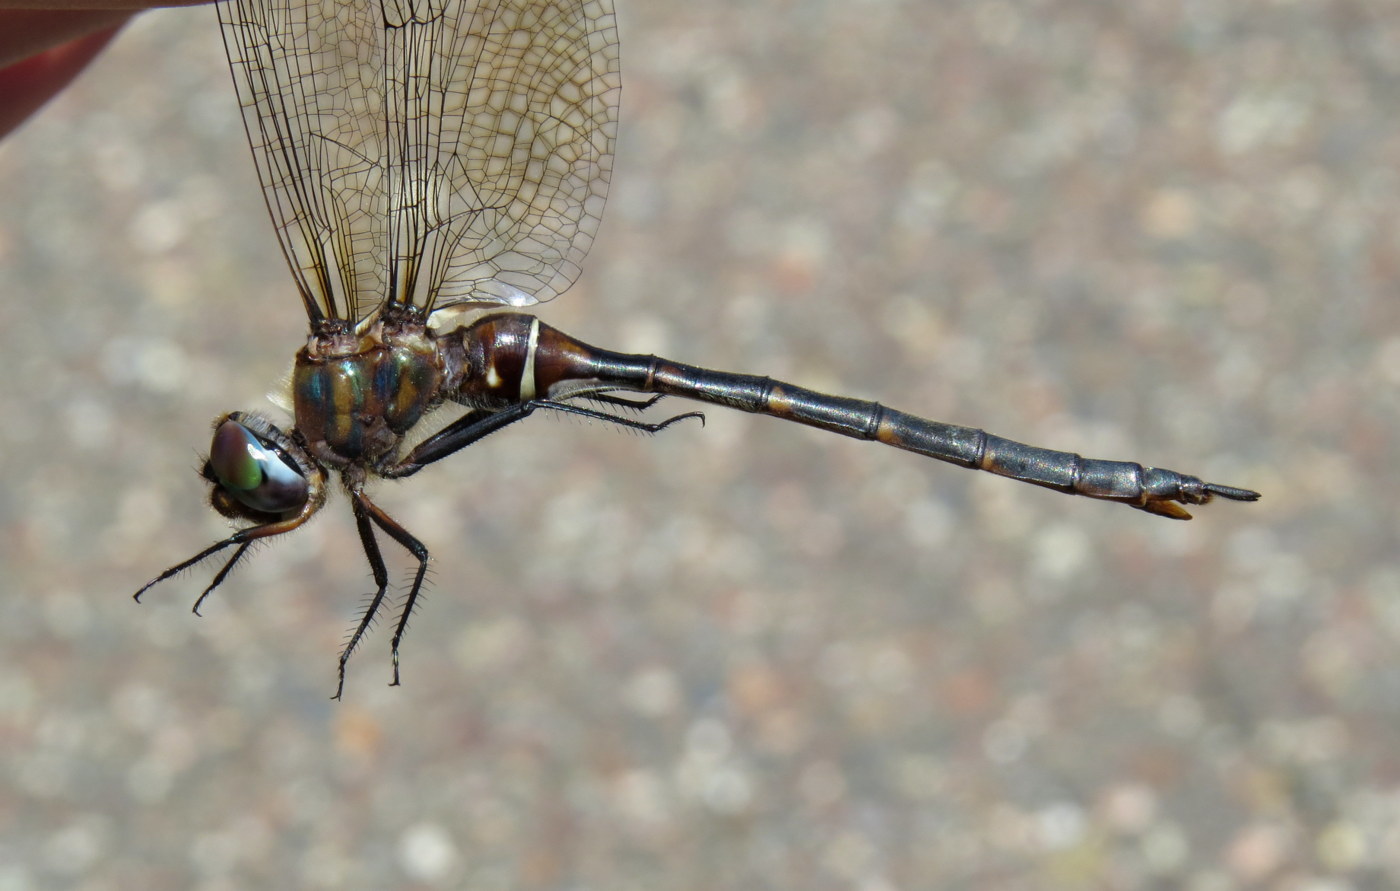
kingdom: Animalia
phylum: Arthropoda
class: Insecta
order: Odonata
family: Corduliidae
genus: Somatochlora
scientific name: Somatochlora incurvata
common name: Incurvate emerald
